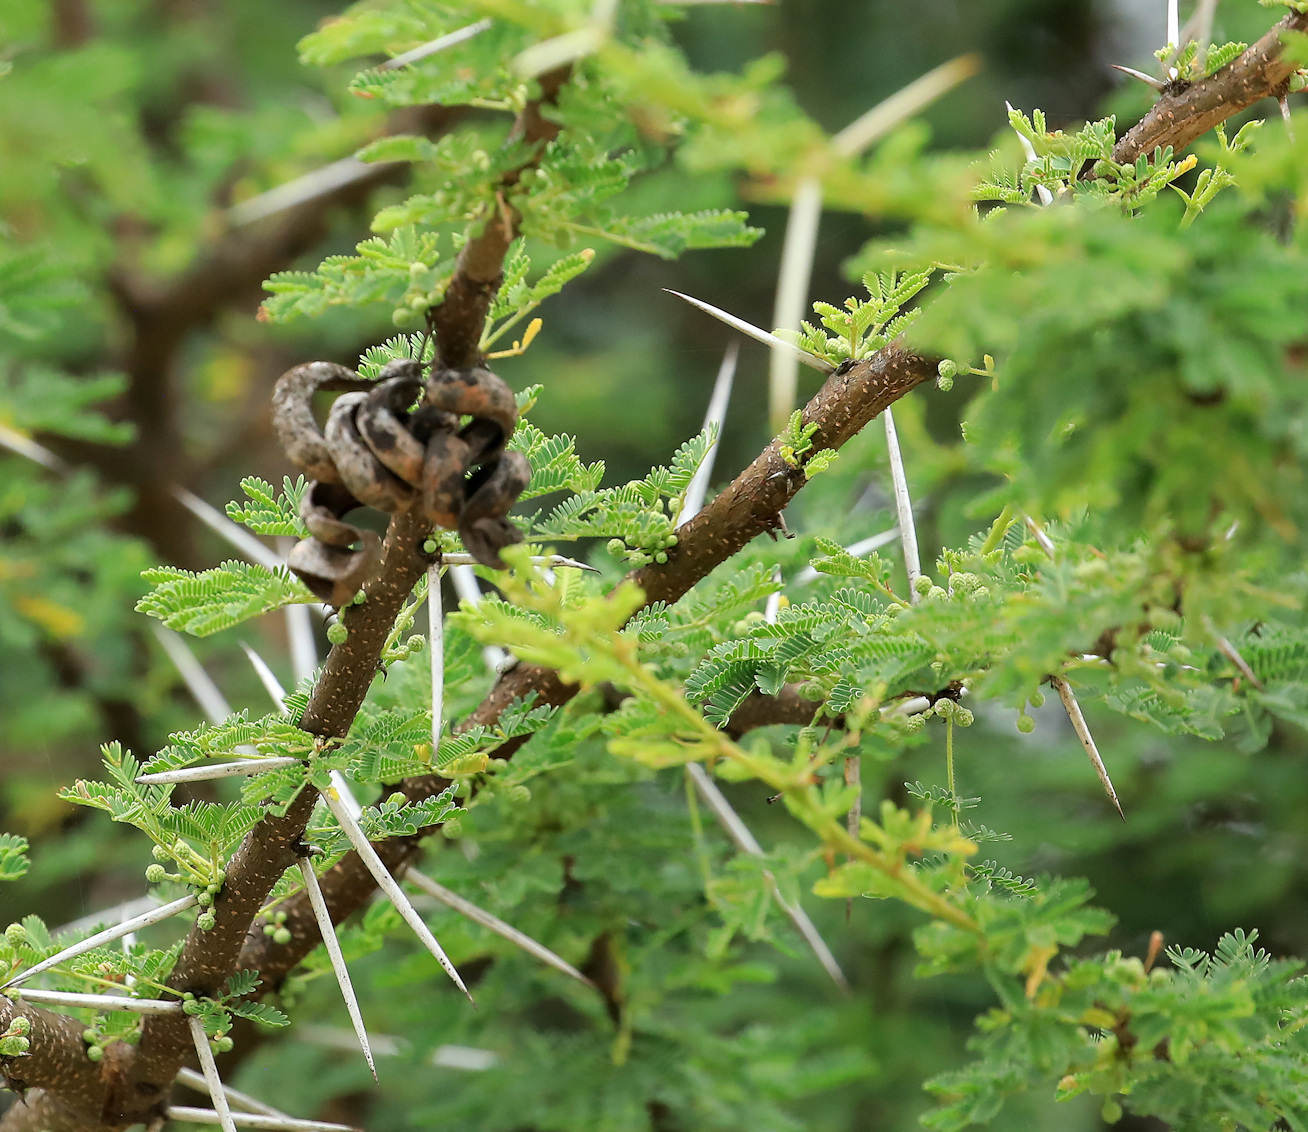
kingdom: Plantae
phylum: Tracheophyta
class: Magnoliopsida
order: Fabales
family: Fabaceae
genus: Vachellia
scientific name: Vachellia tortilis
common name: Umbrella thorn acacia
